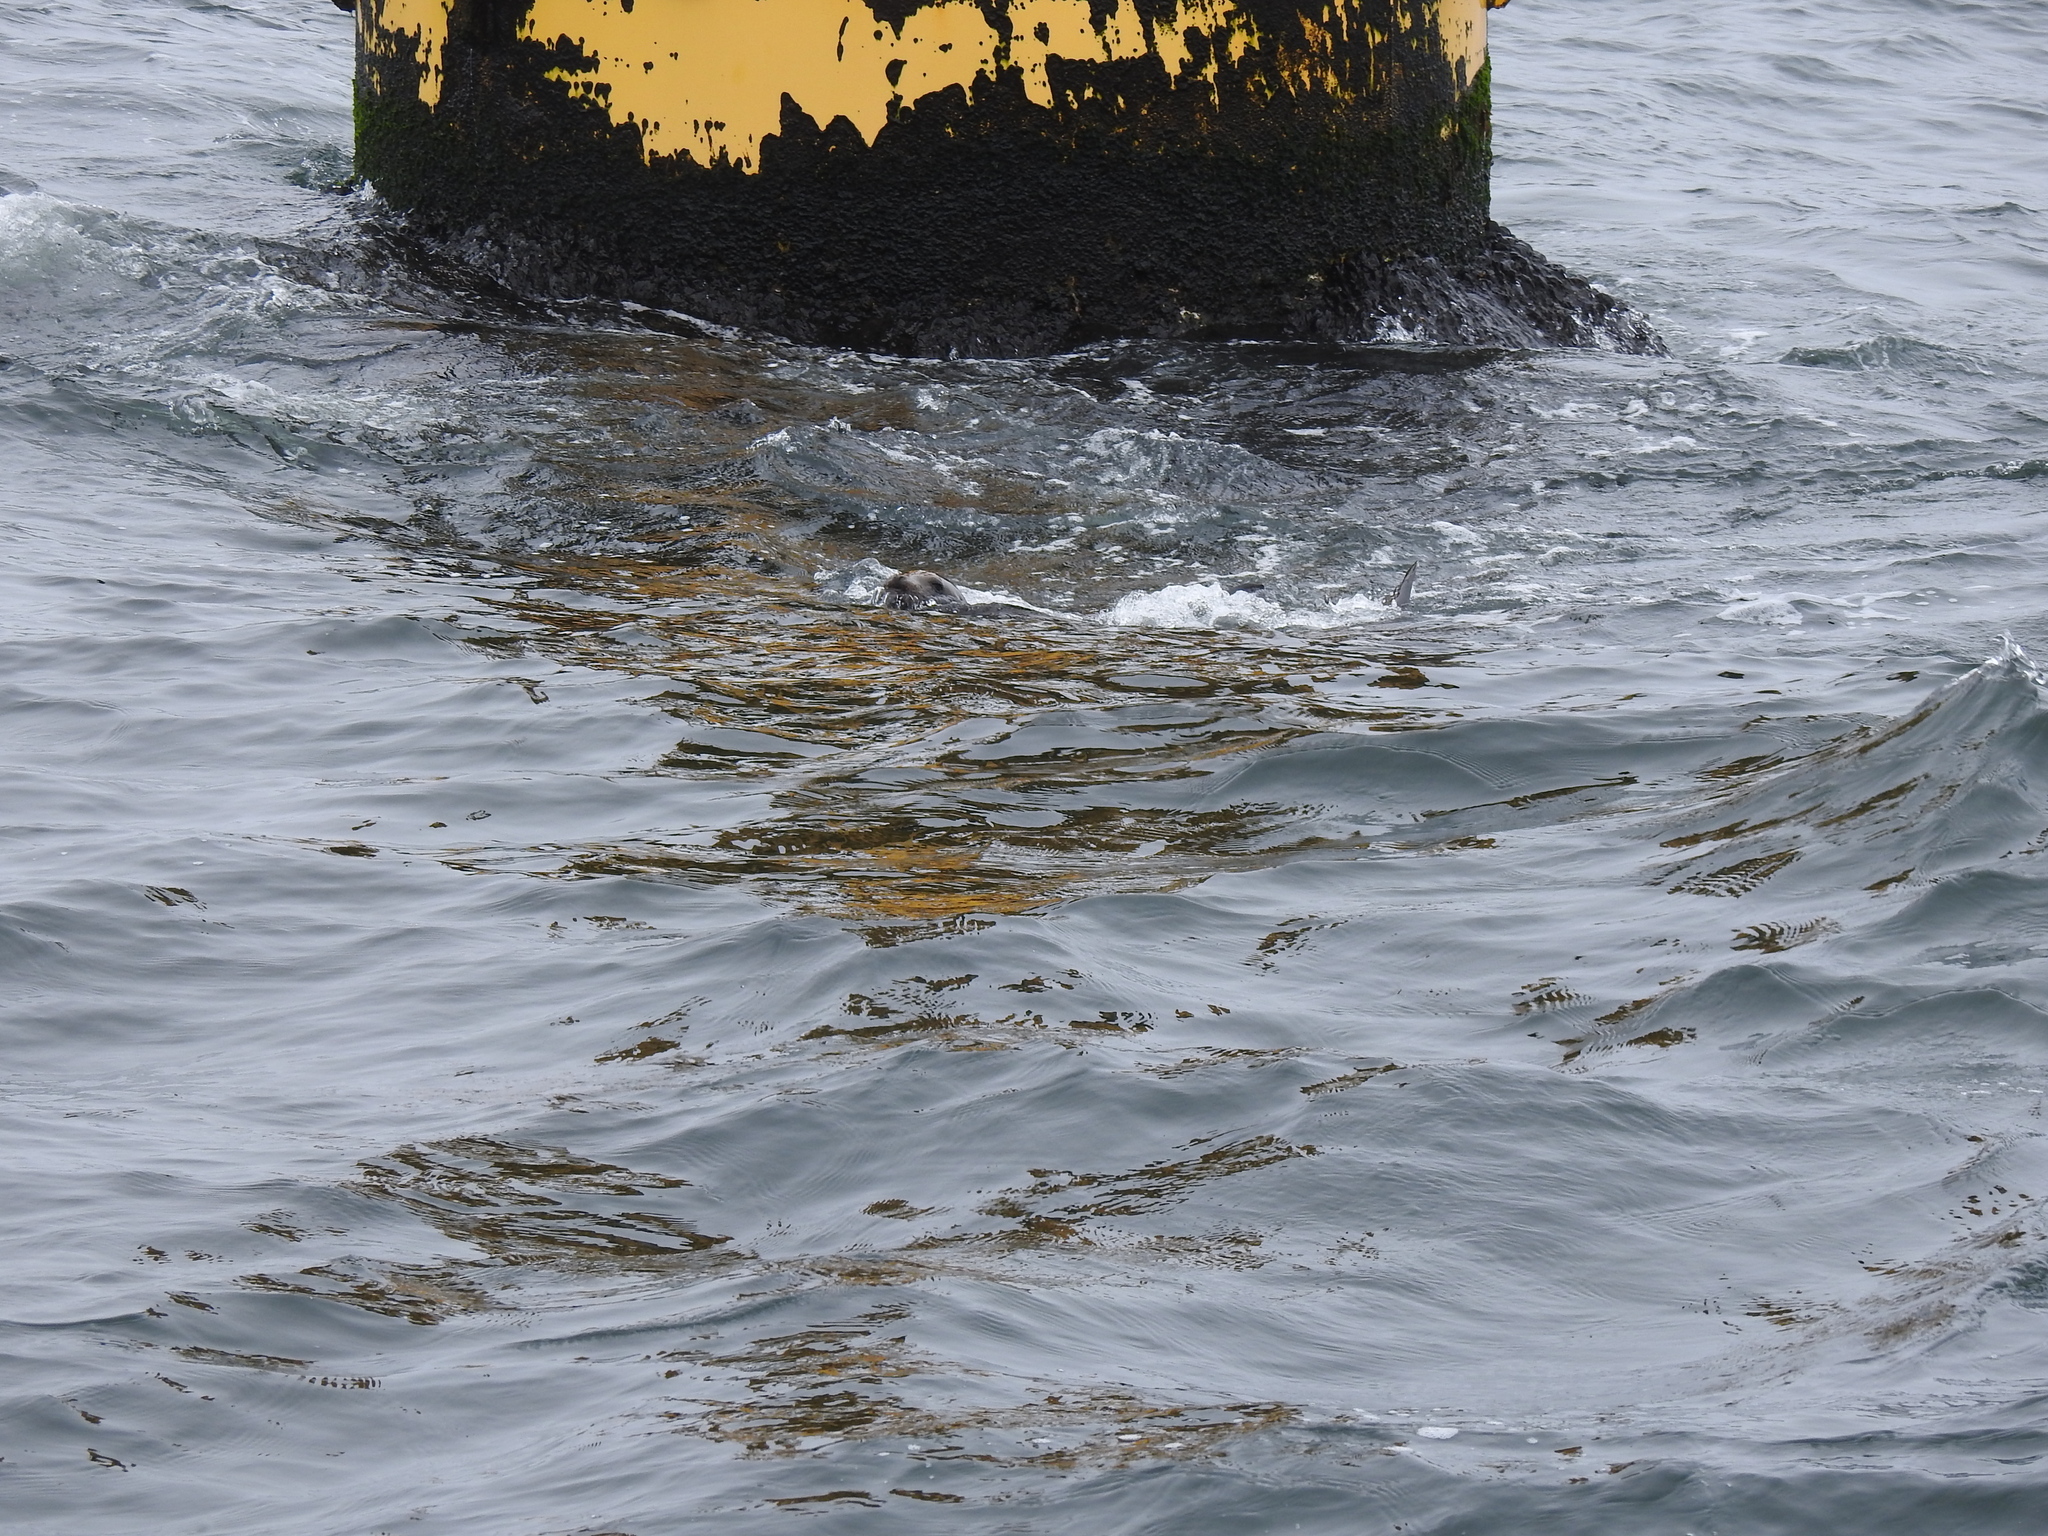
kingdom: Animalia
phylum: Chordata
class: Mammalia
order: Carnivora
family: Otariidae
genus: Zalophus
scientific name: Zalophus californianus
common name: California sea lion
